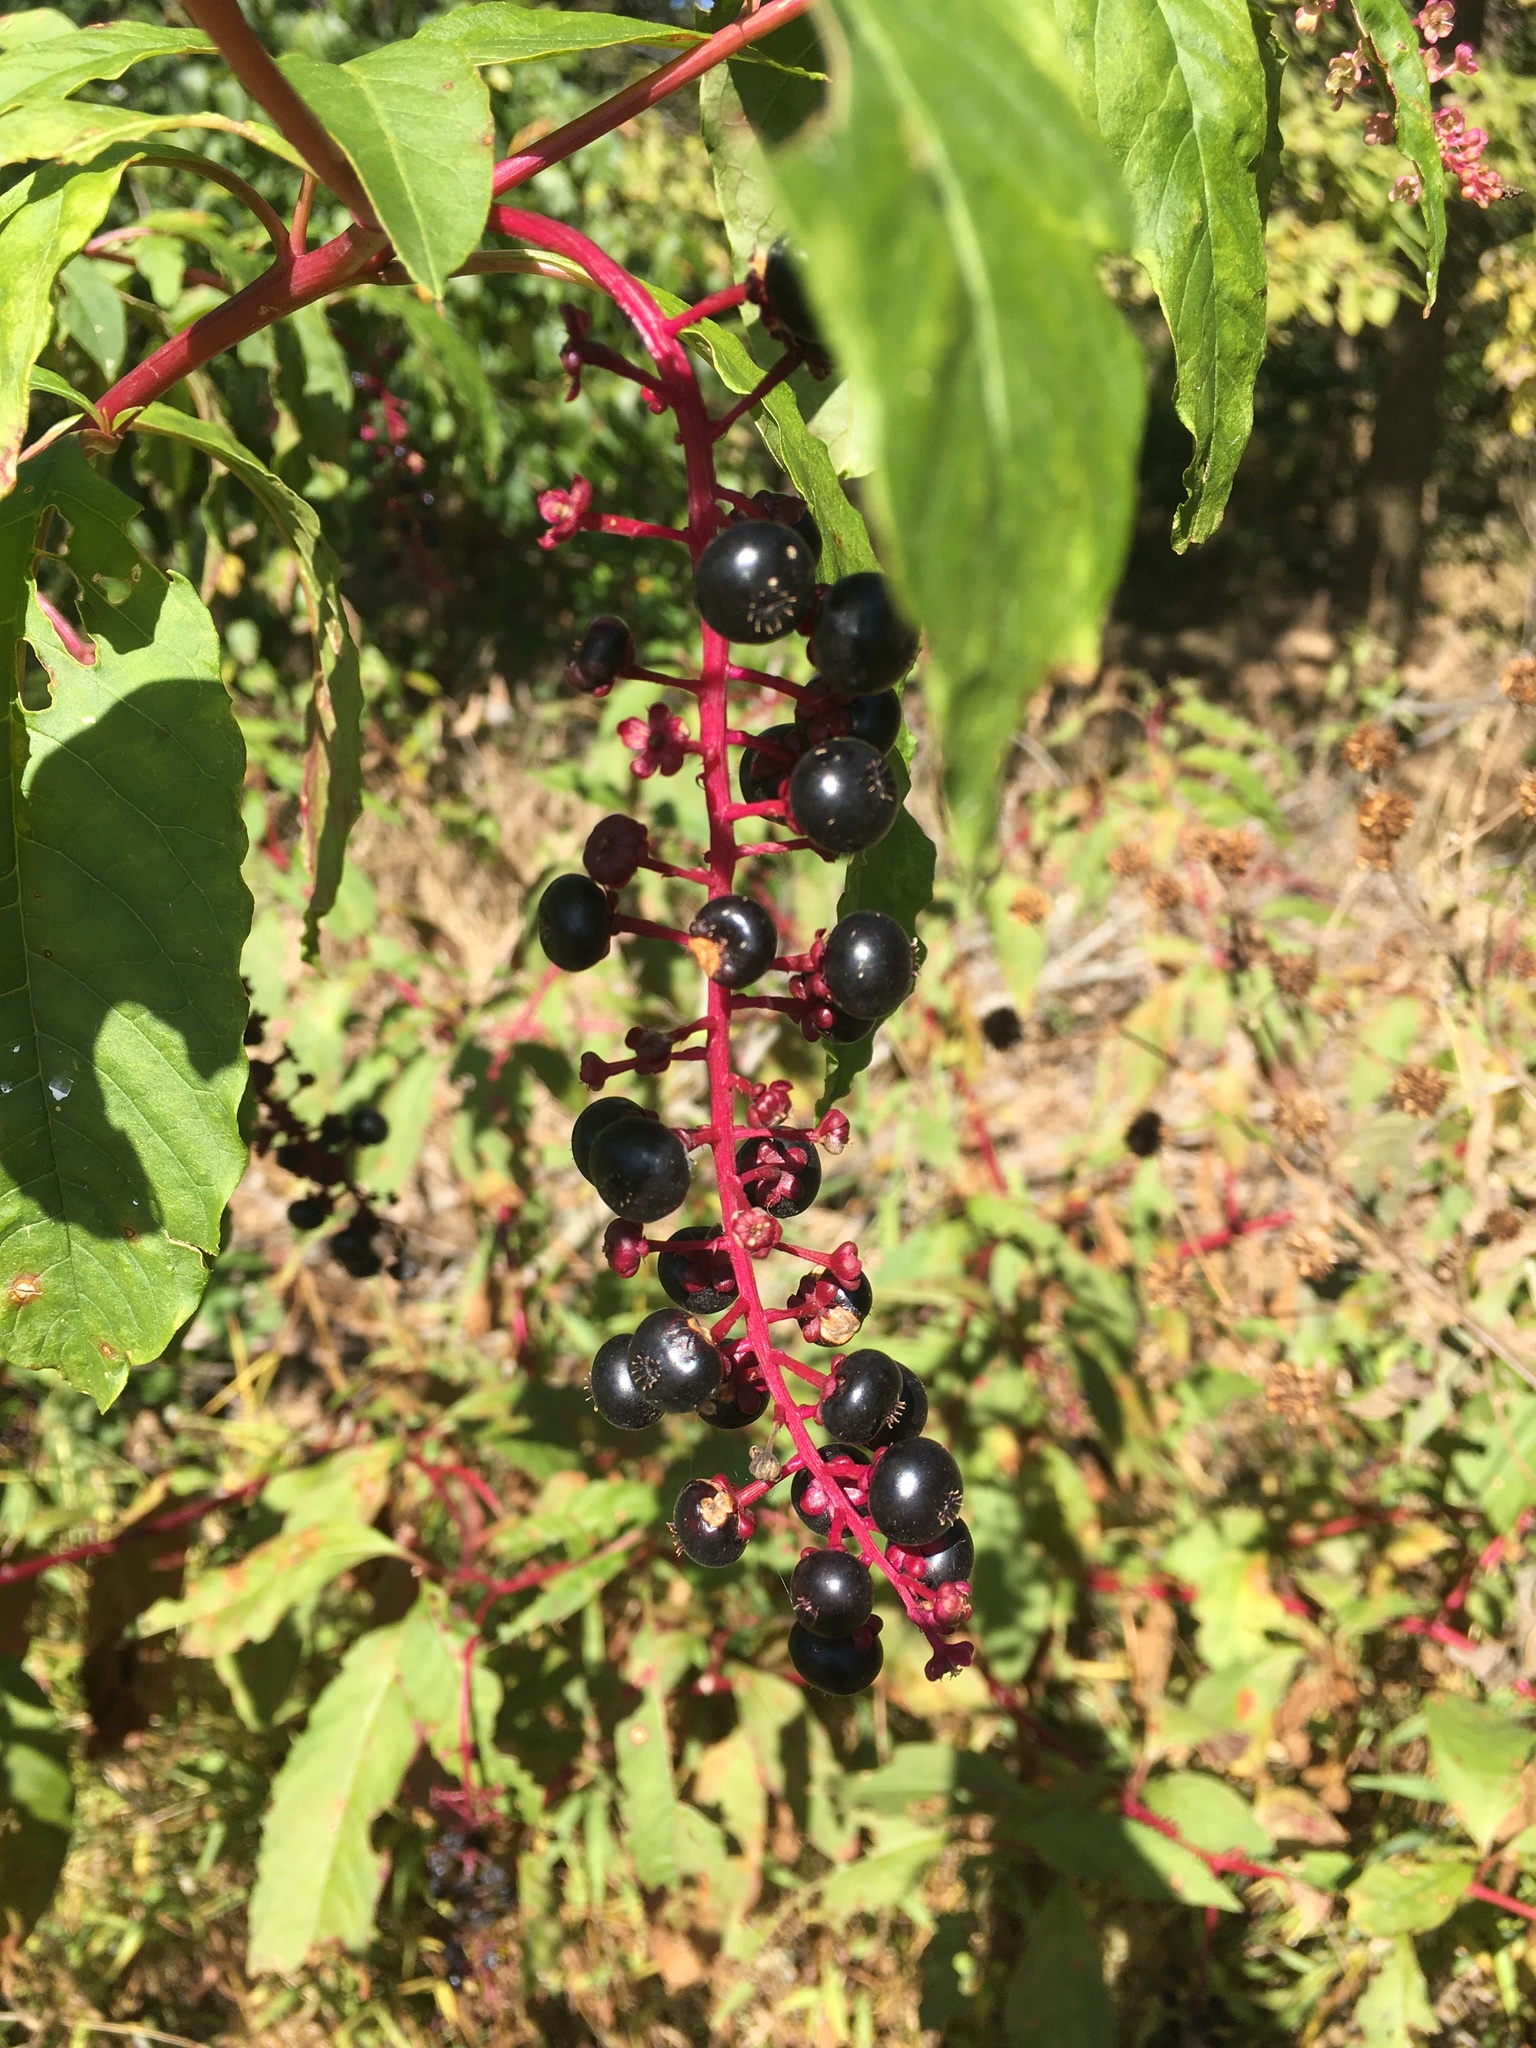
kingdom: Plantae
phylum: Tracheophyta
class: Magnoliopsida
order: Caryophyllales
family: Phytolaccaceae
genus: Phytolacca
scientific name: Phytolacca americana
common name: American pokeweed
